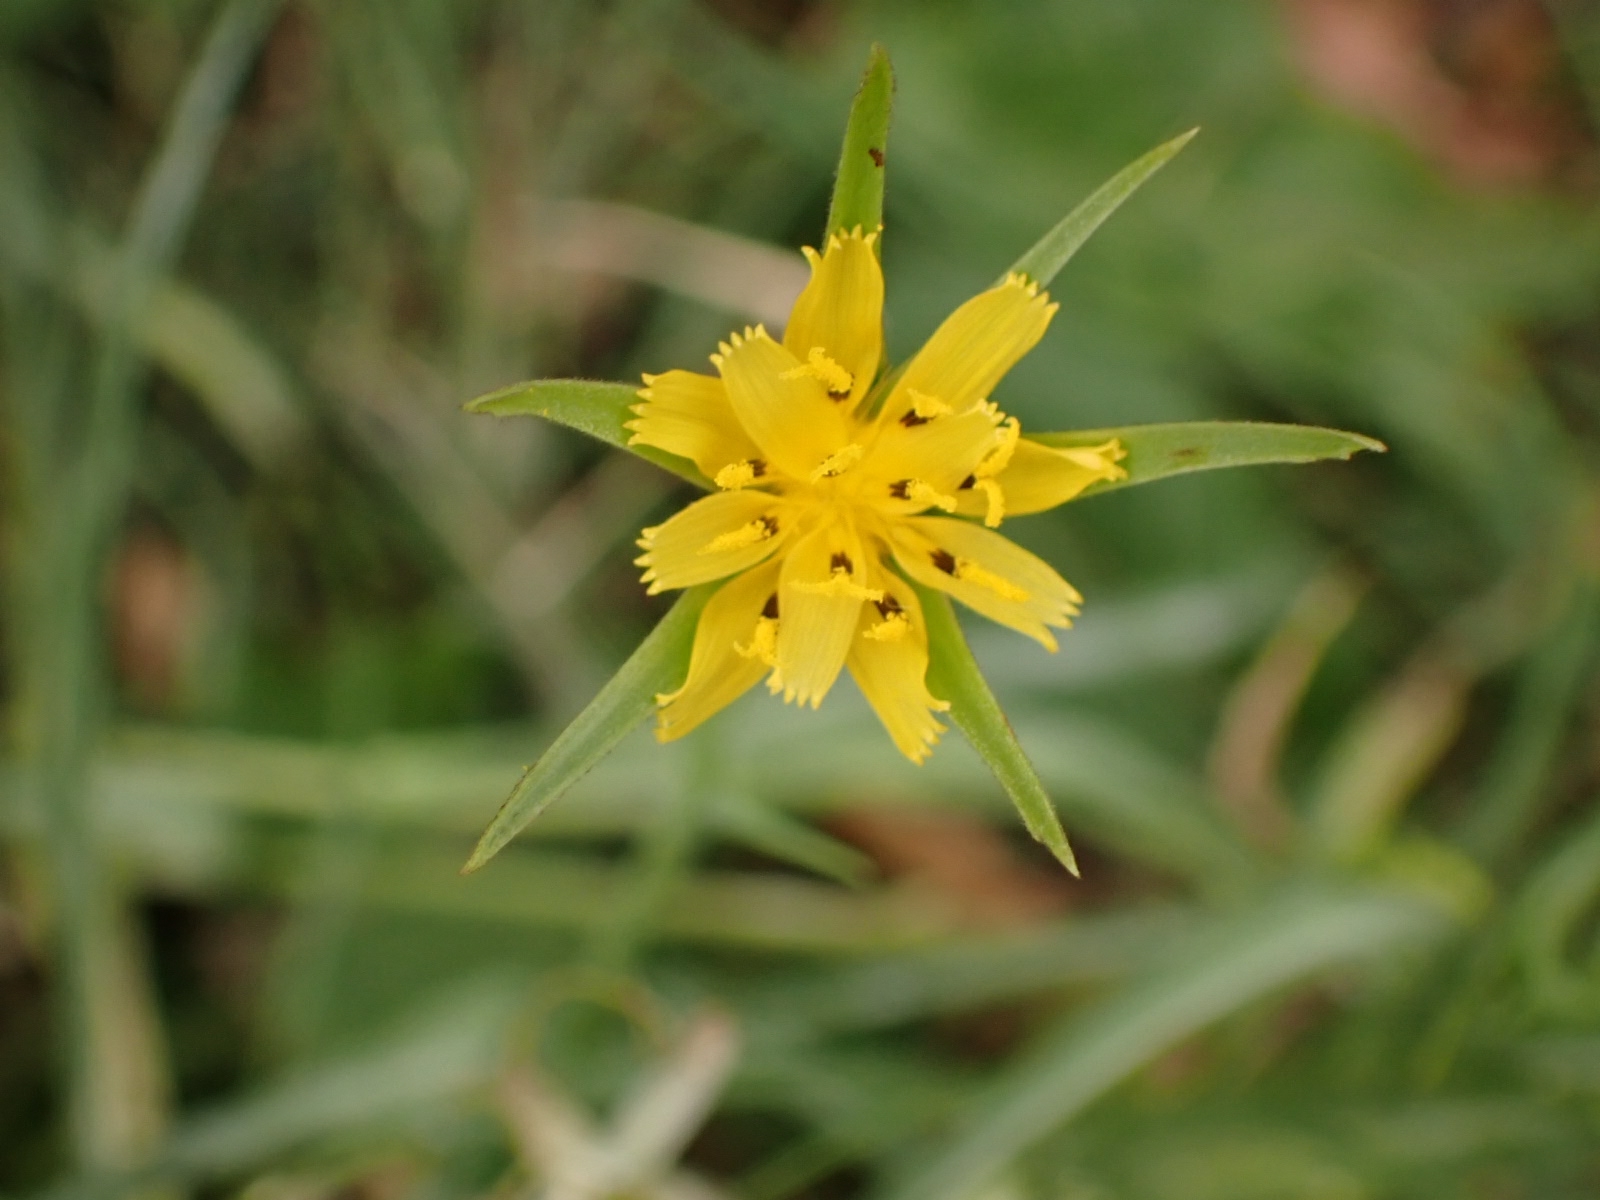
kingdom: Plantae
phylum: Tracheophyta
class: Magnoliopsida
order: Asterales
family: Asteraceae
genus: Tragopogon
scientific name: Tragopogon minor
